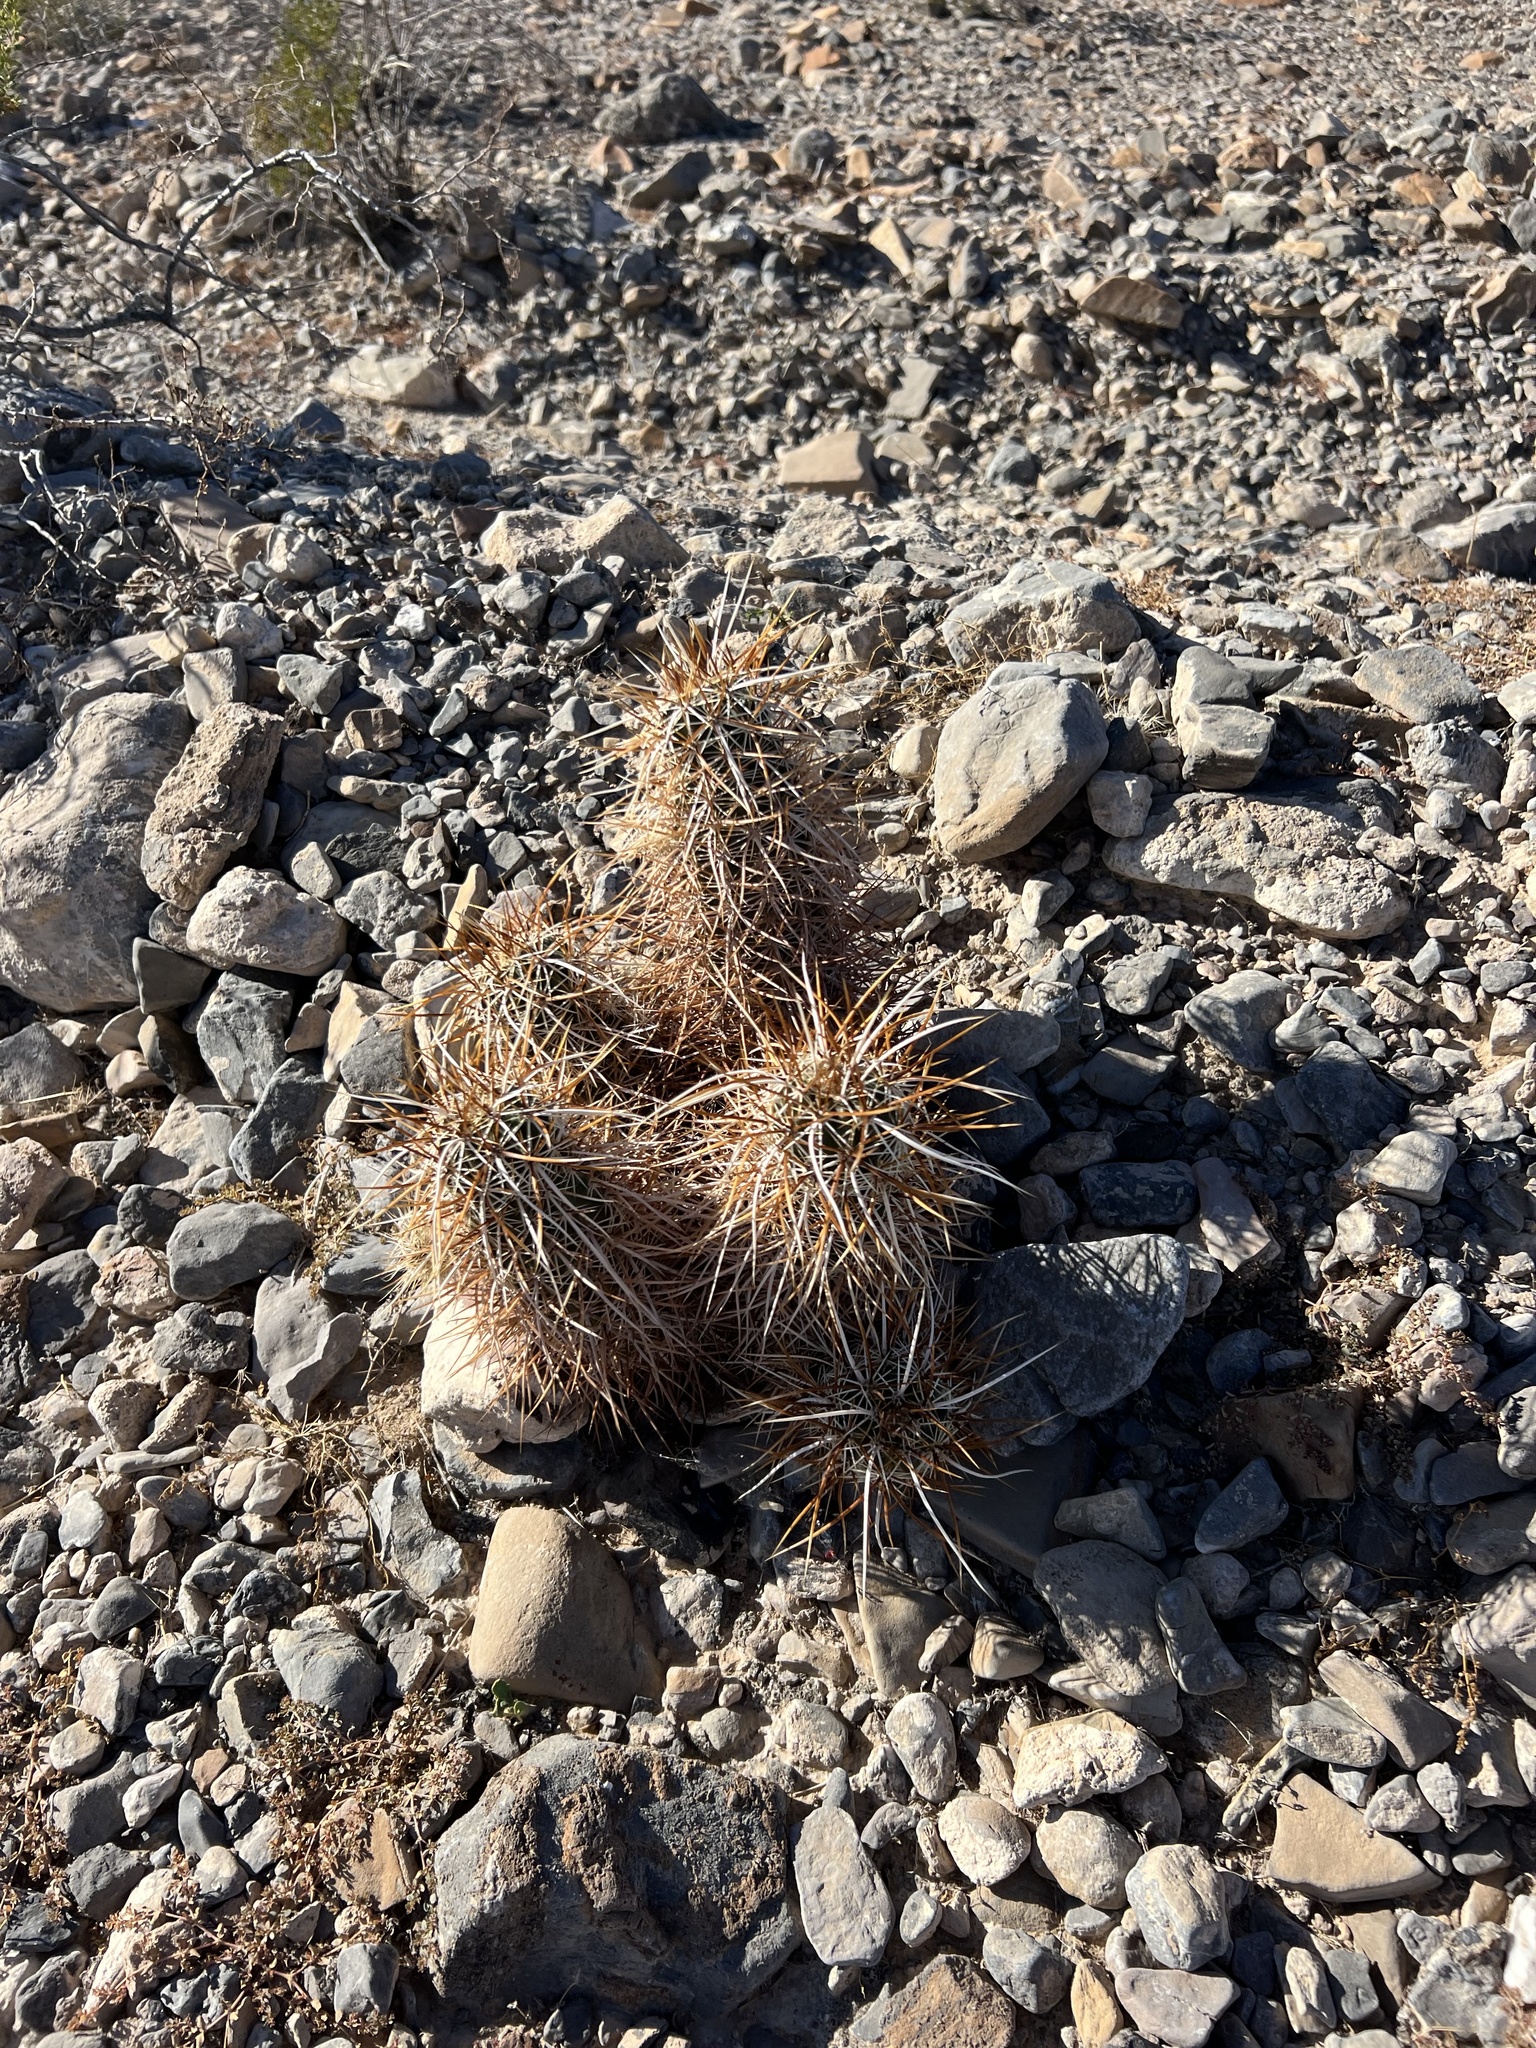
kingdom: Plantae
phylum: Tracheophyta
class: Magnoliopsida
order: Caryophyllales
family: Cactaceae
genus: Echinocereus
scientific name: Echinocereus engelmannii
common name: Engelmann's hedgehog cactus
